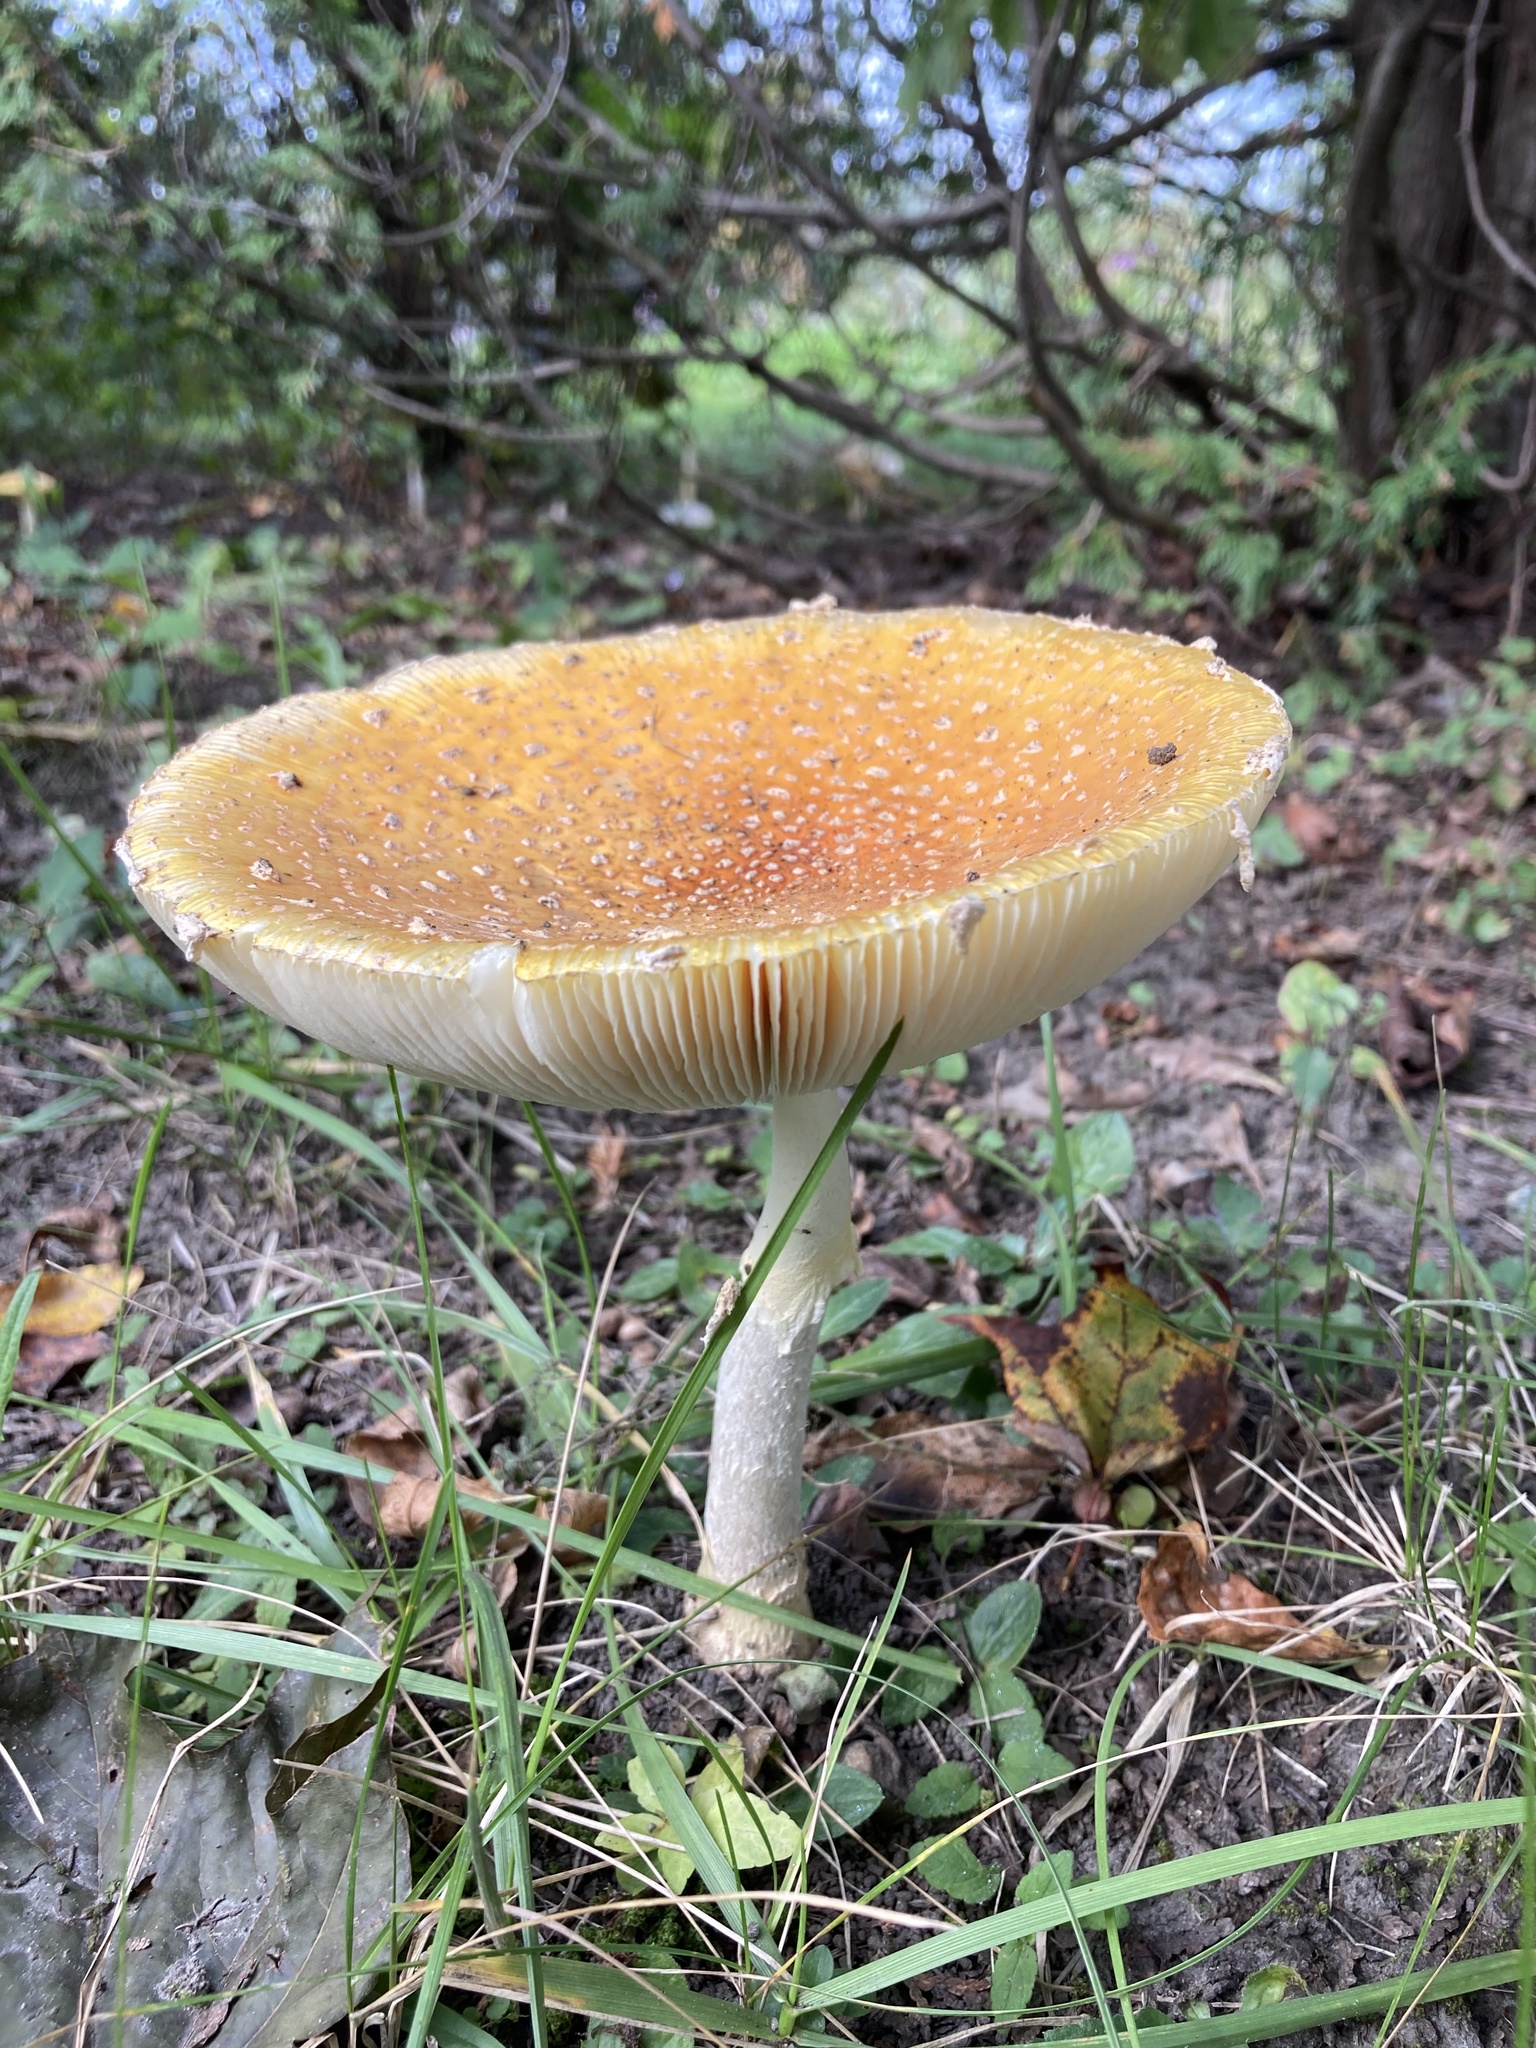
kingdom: Fungi
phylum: Basidiomycota
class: Agaricomycetes
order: Agaricales
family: Amanitaceae
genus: Amanita
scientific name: Amanita muscaria
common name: Fly agaric
